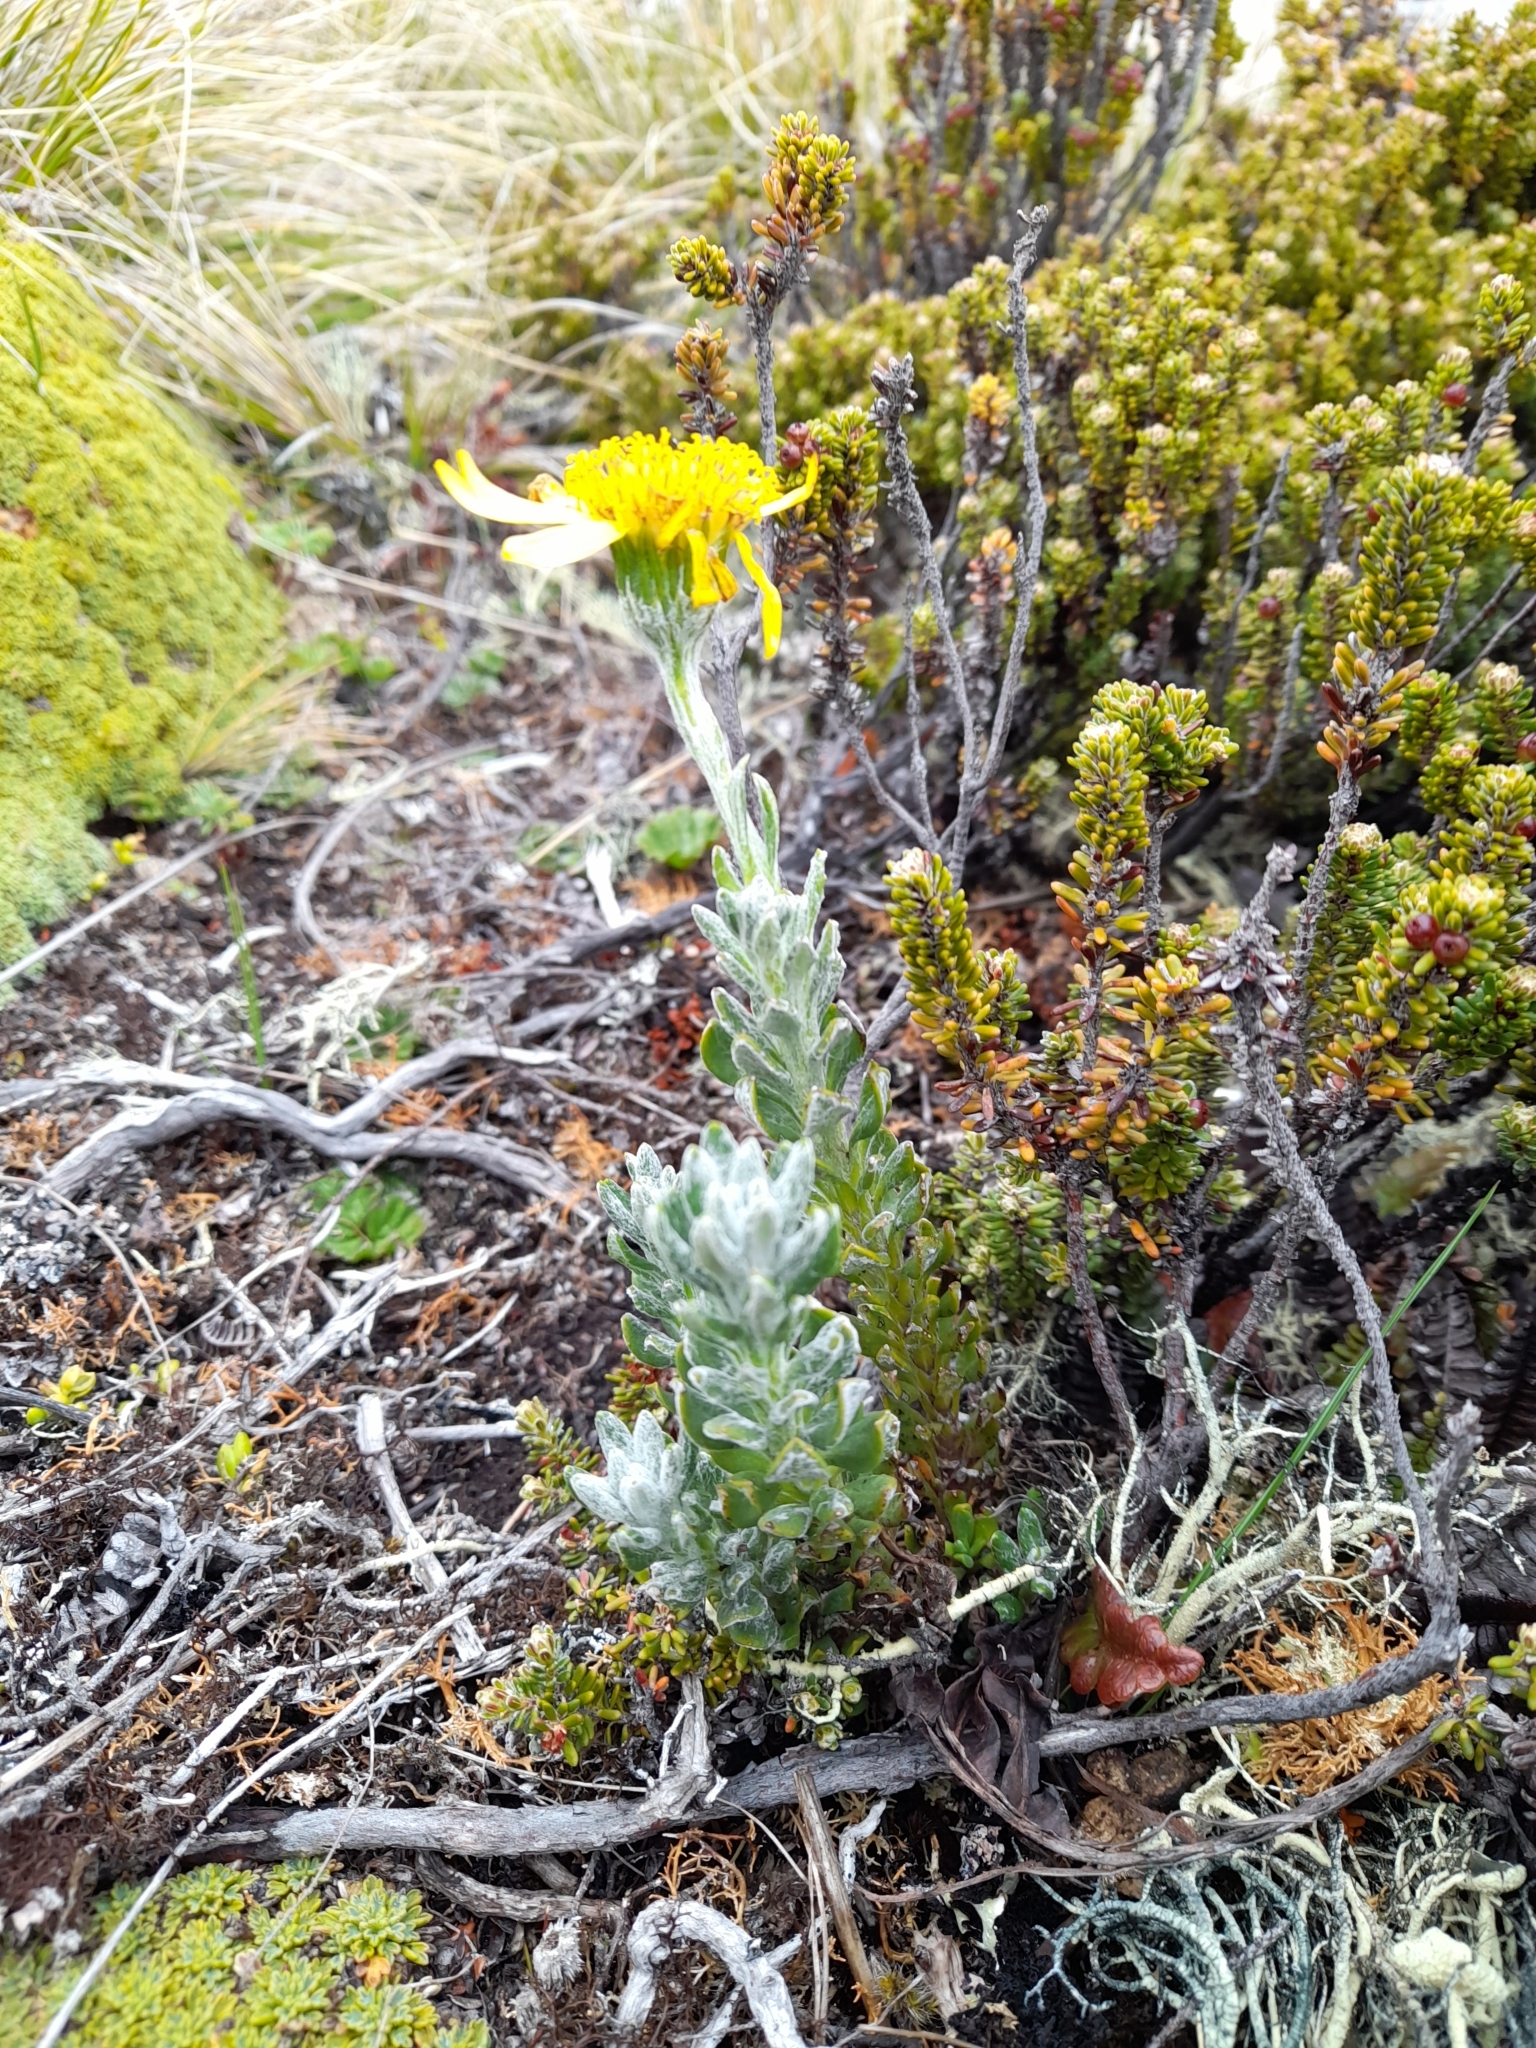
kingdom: Plantae
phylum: Tracheophyta
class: Magnoliopsida
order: Asterales
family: Asteraceae
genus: Senecio
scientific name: Senecio falklandicus
